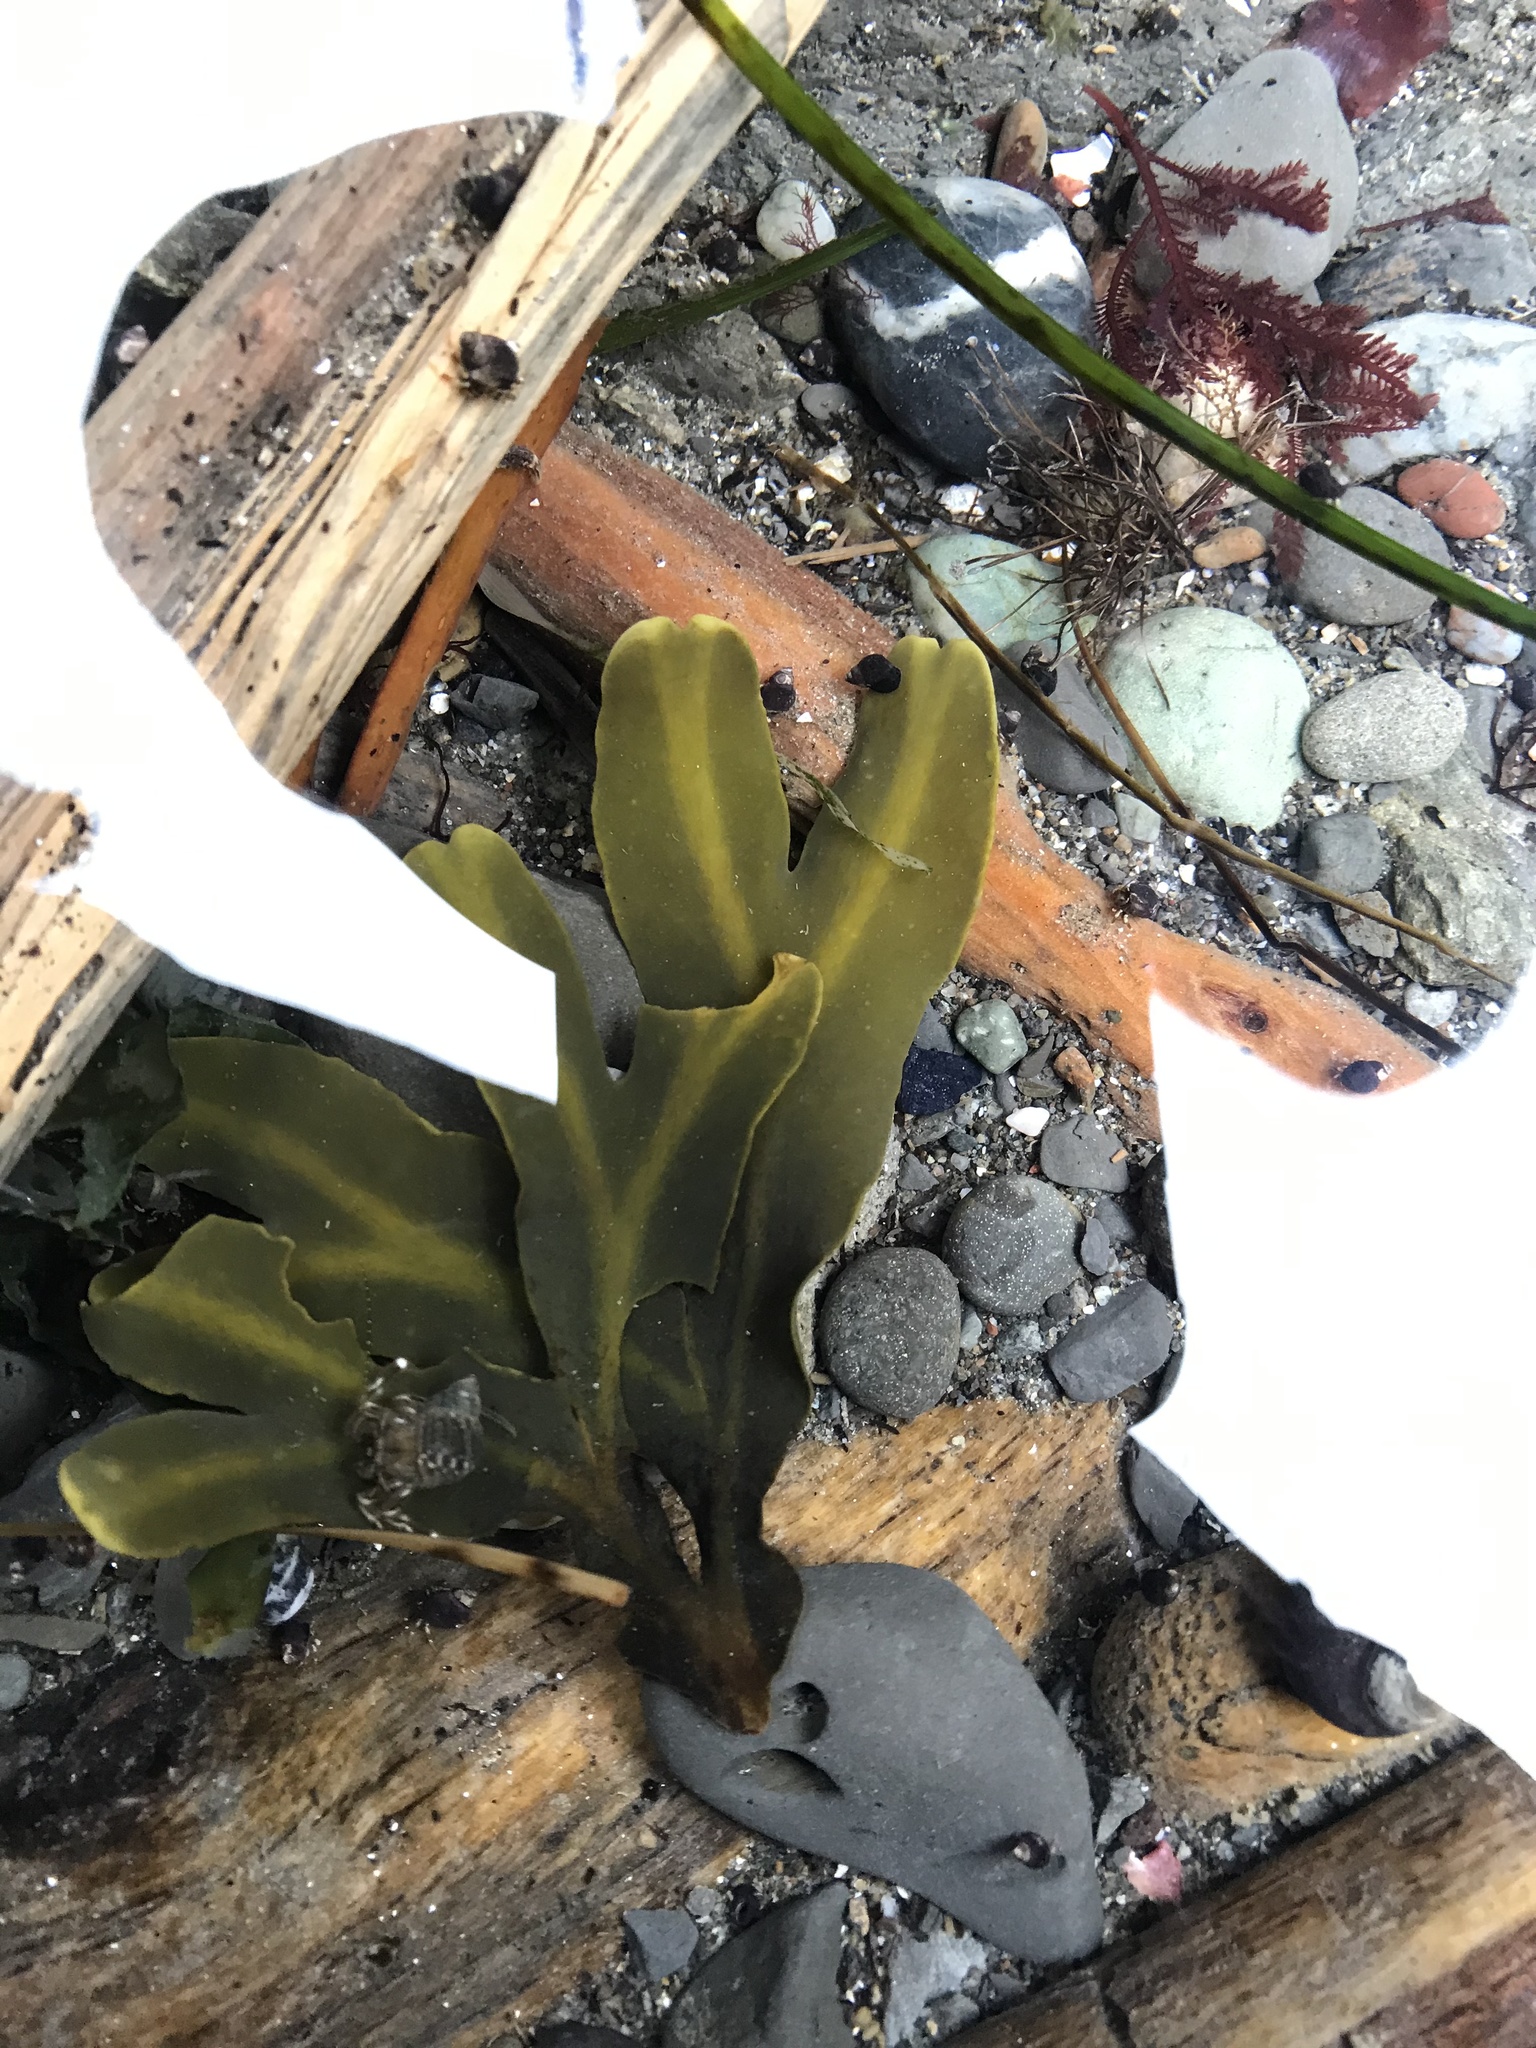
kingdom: Chromista
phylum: Ochrophyta
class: Phaeophyceae
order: Fucales
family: Fucaceae
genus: Fucus
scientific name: Fucus distichus
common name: Rockweed
